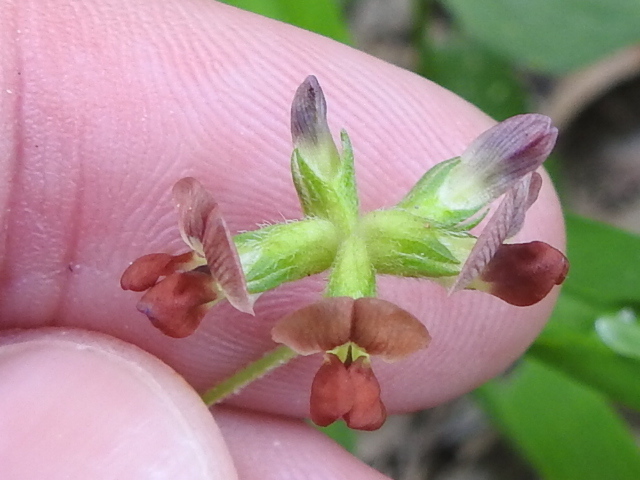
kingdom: Plantae
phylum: Tracheophyta
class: Magnoliopsida
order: Fabales
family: Fabaceae
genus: Pediomelum
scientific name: Pediomelum rhombifolium
